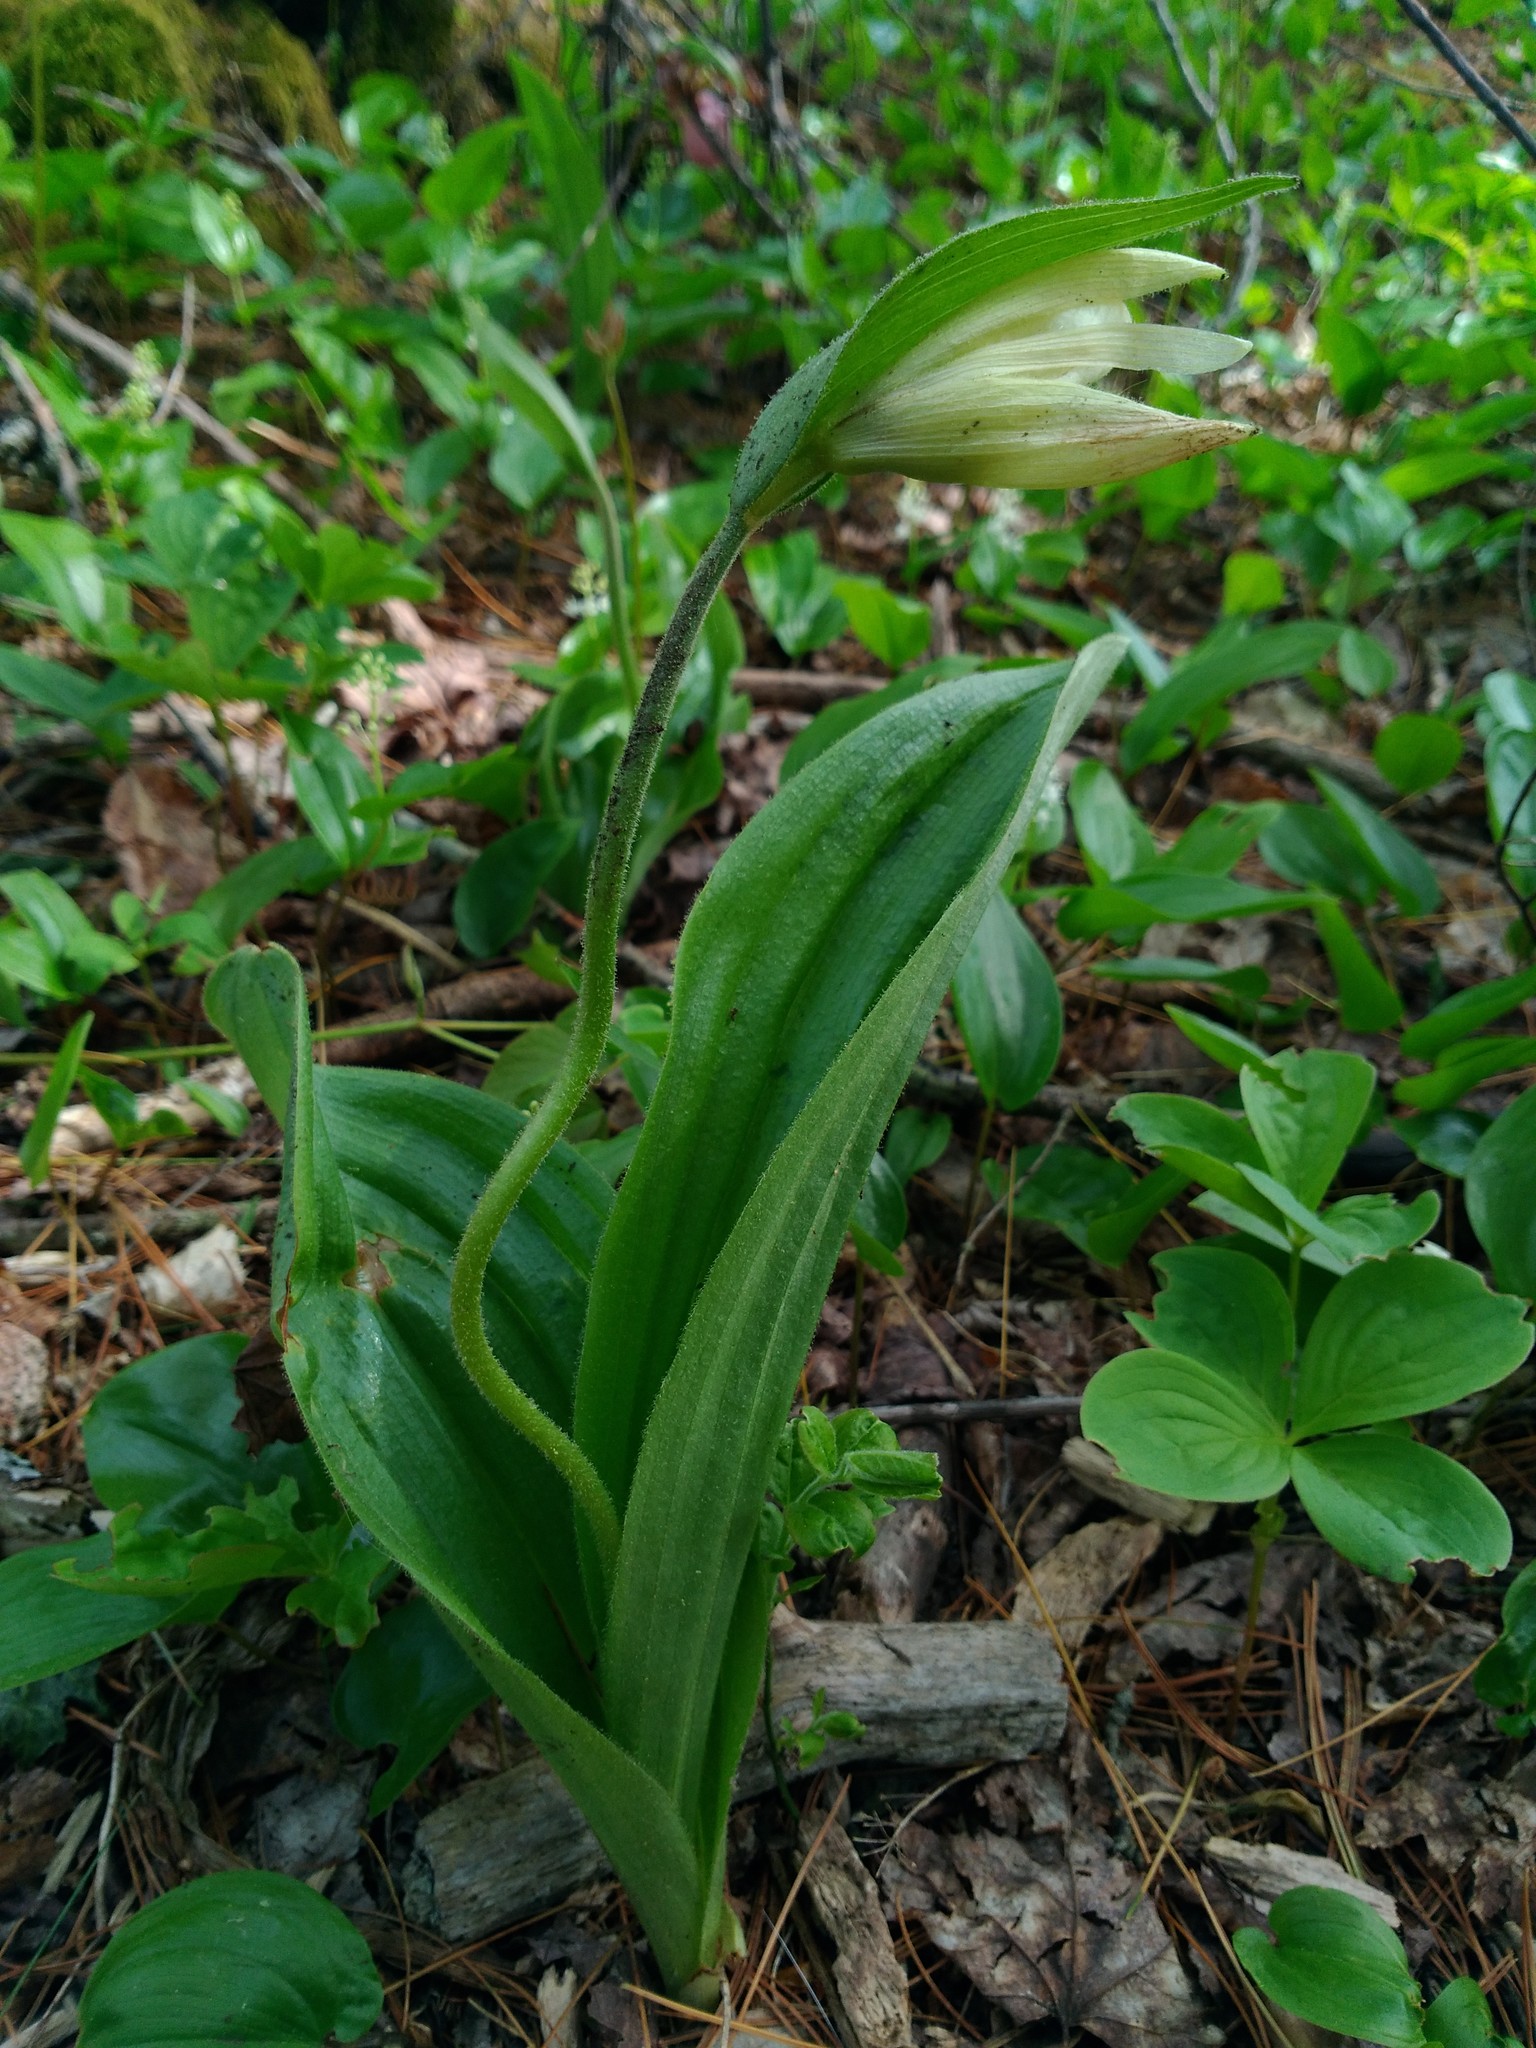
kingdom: Plantae
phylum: Tracheophyta
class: Liliopsida
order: Asparagales
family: Orchidaceae
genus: Cypripedium
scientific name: Cypripedium acaule
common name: Pink lady's-slipper
